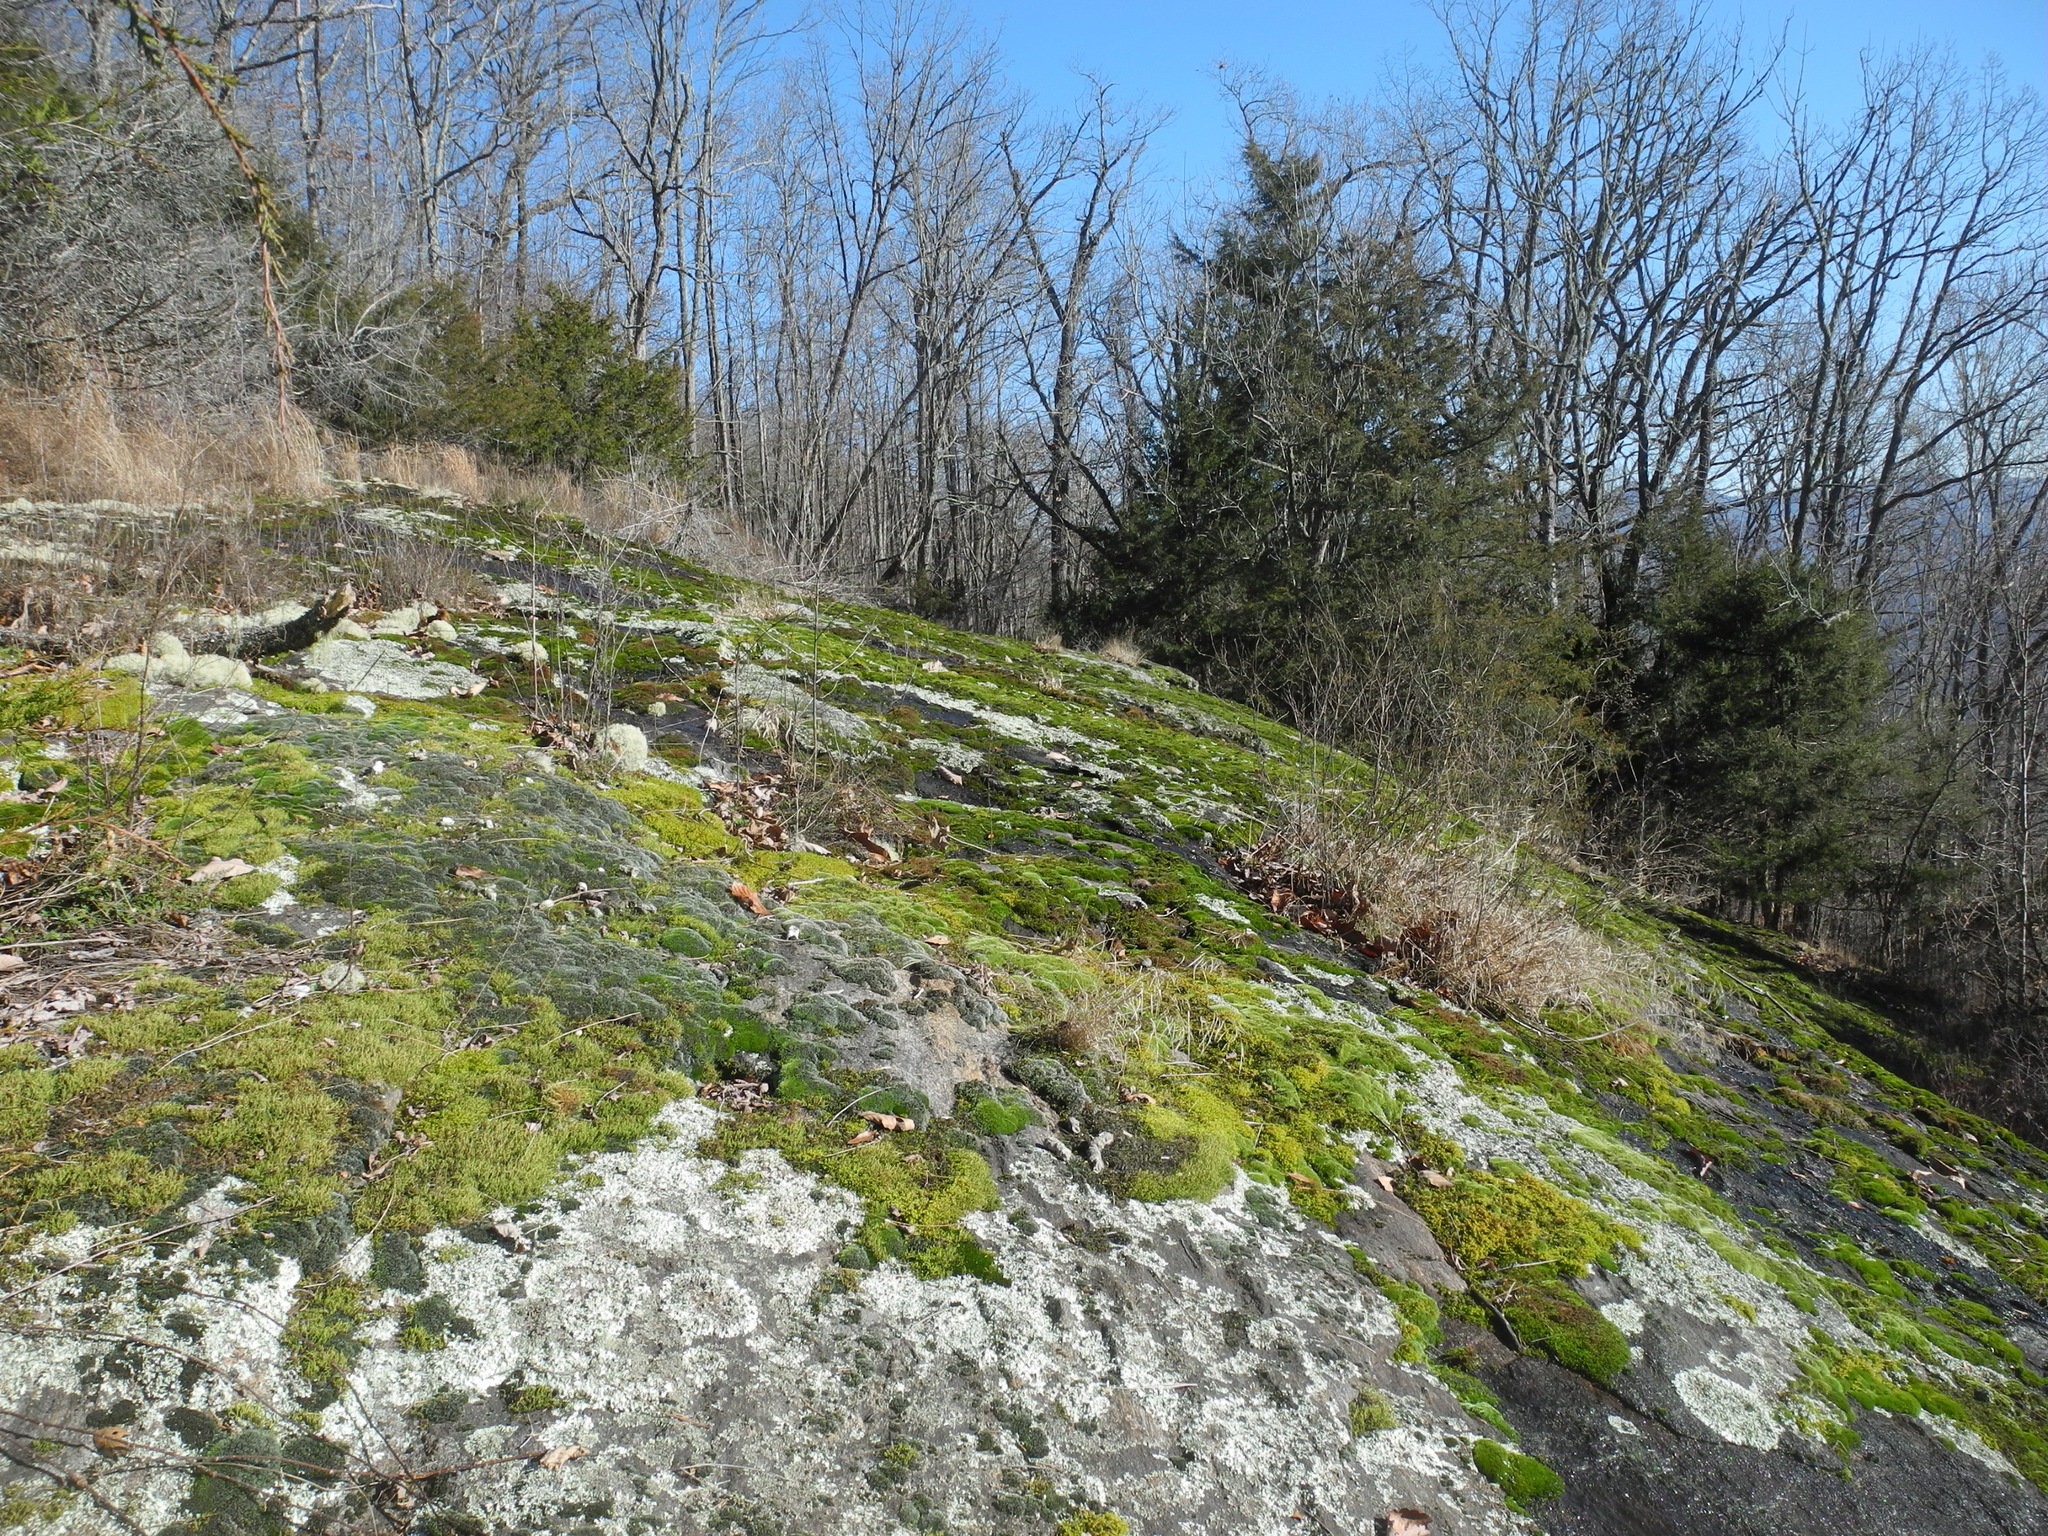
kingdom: Plantae
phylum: Tracheophyta
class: Pinopsida
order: Pinales
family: Cupressaceae
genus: Juniperus
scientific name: Juniperus virginiana
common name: Red juniper
